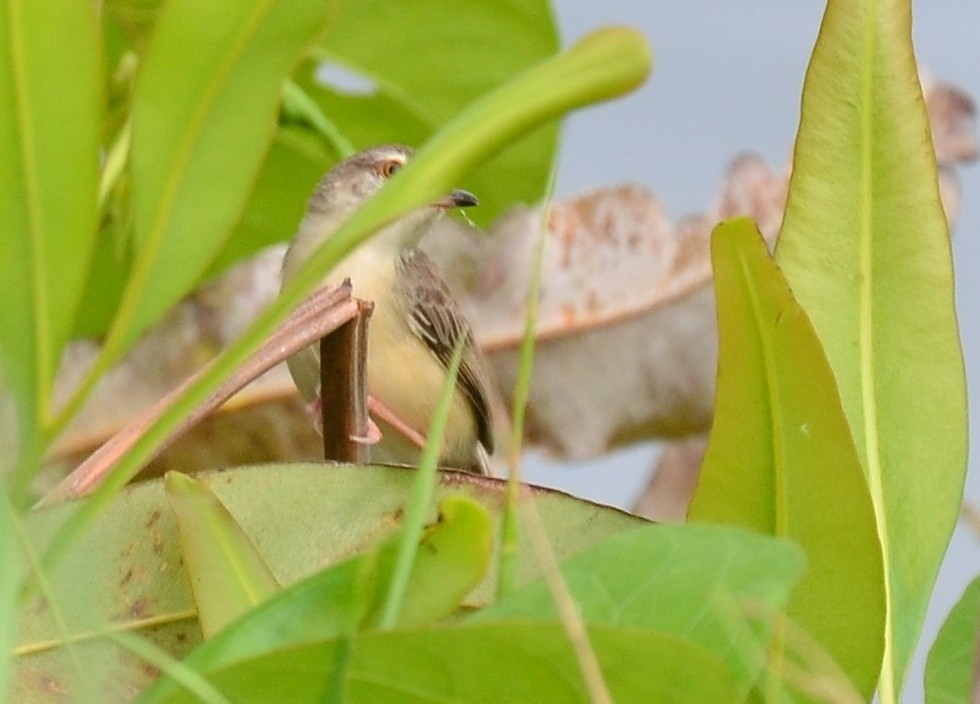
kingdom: Animalia
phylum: Chordata
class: Aves
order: Passeriformes
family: Cisticolidae
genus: Prinia
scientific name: Prinia inornata
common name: Plain prinia
